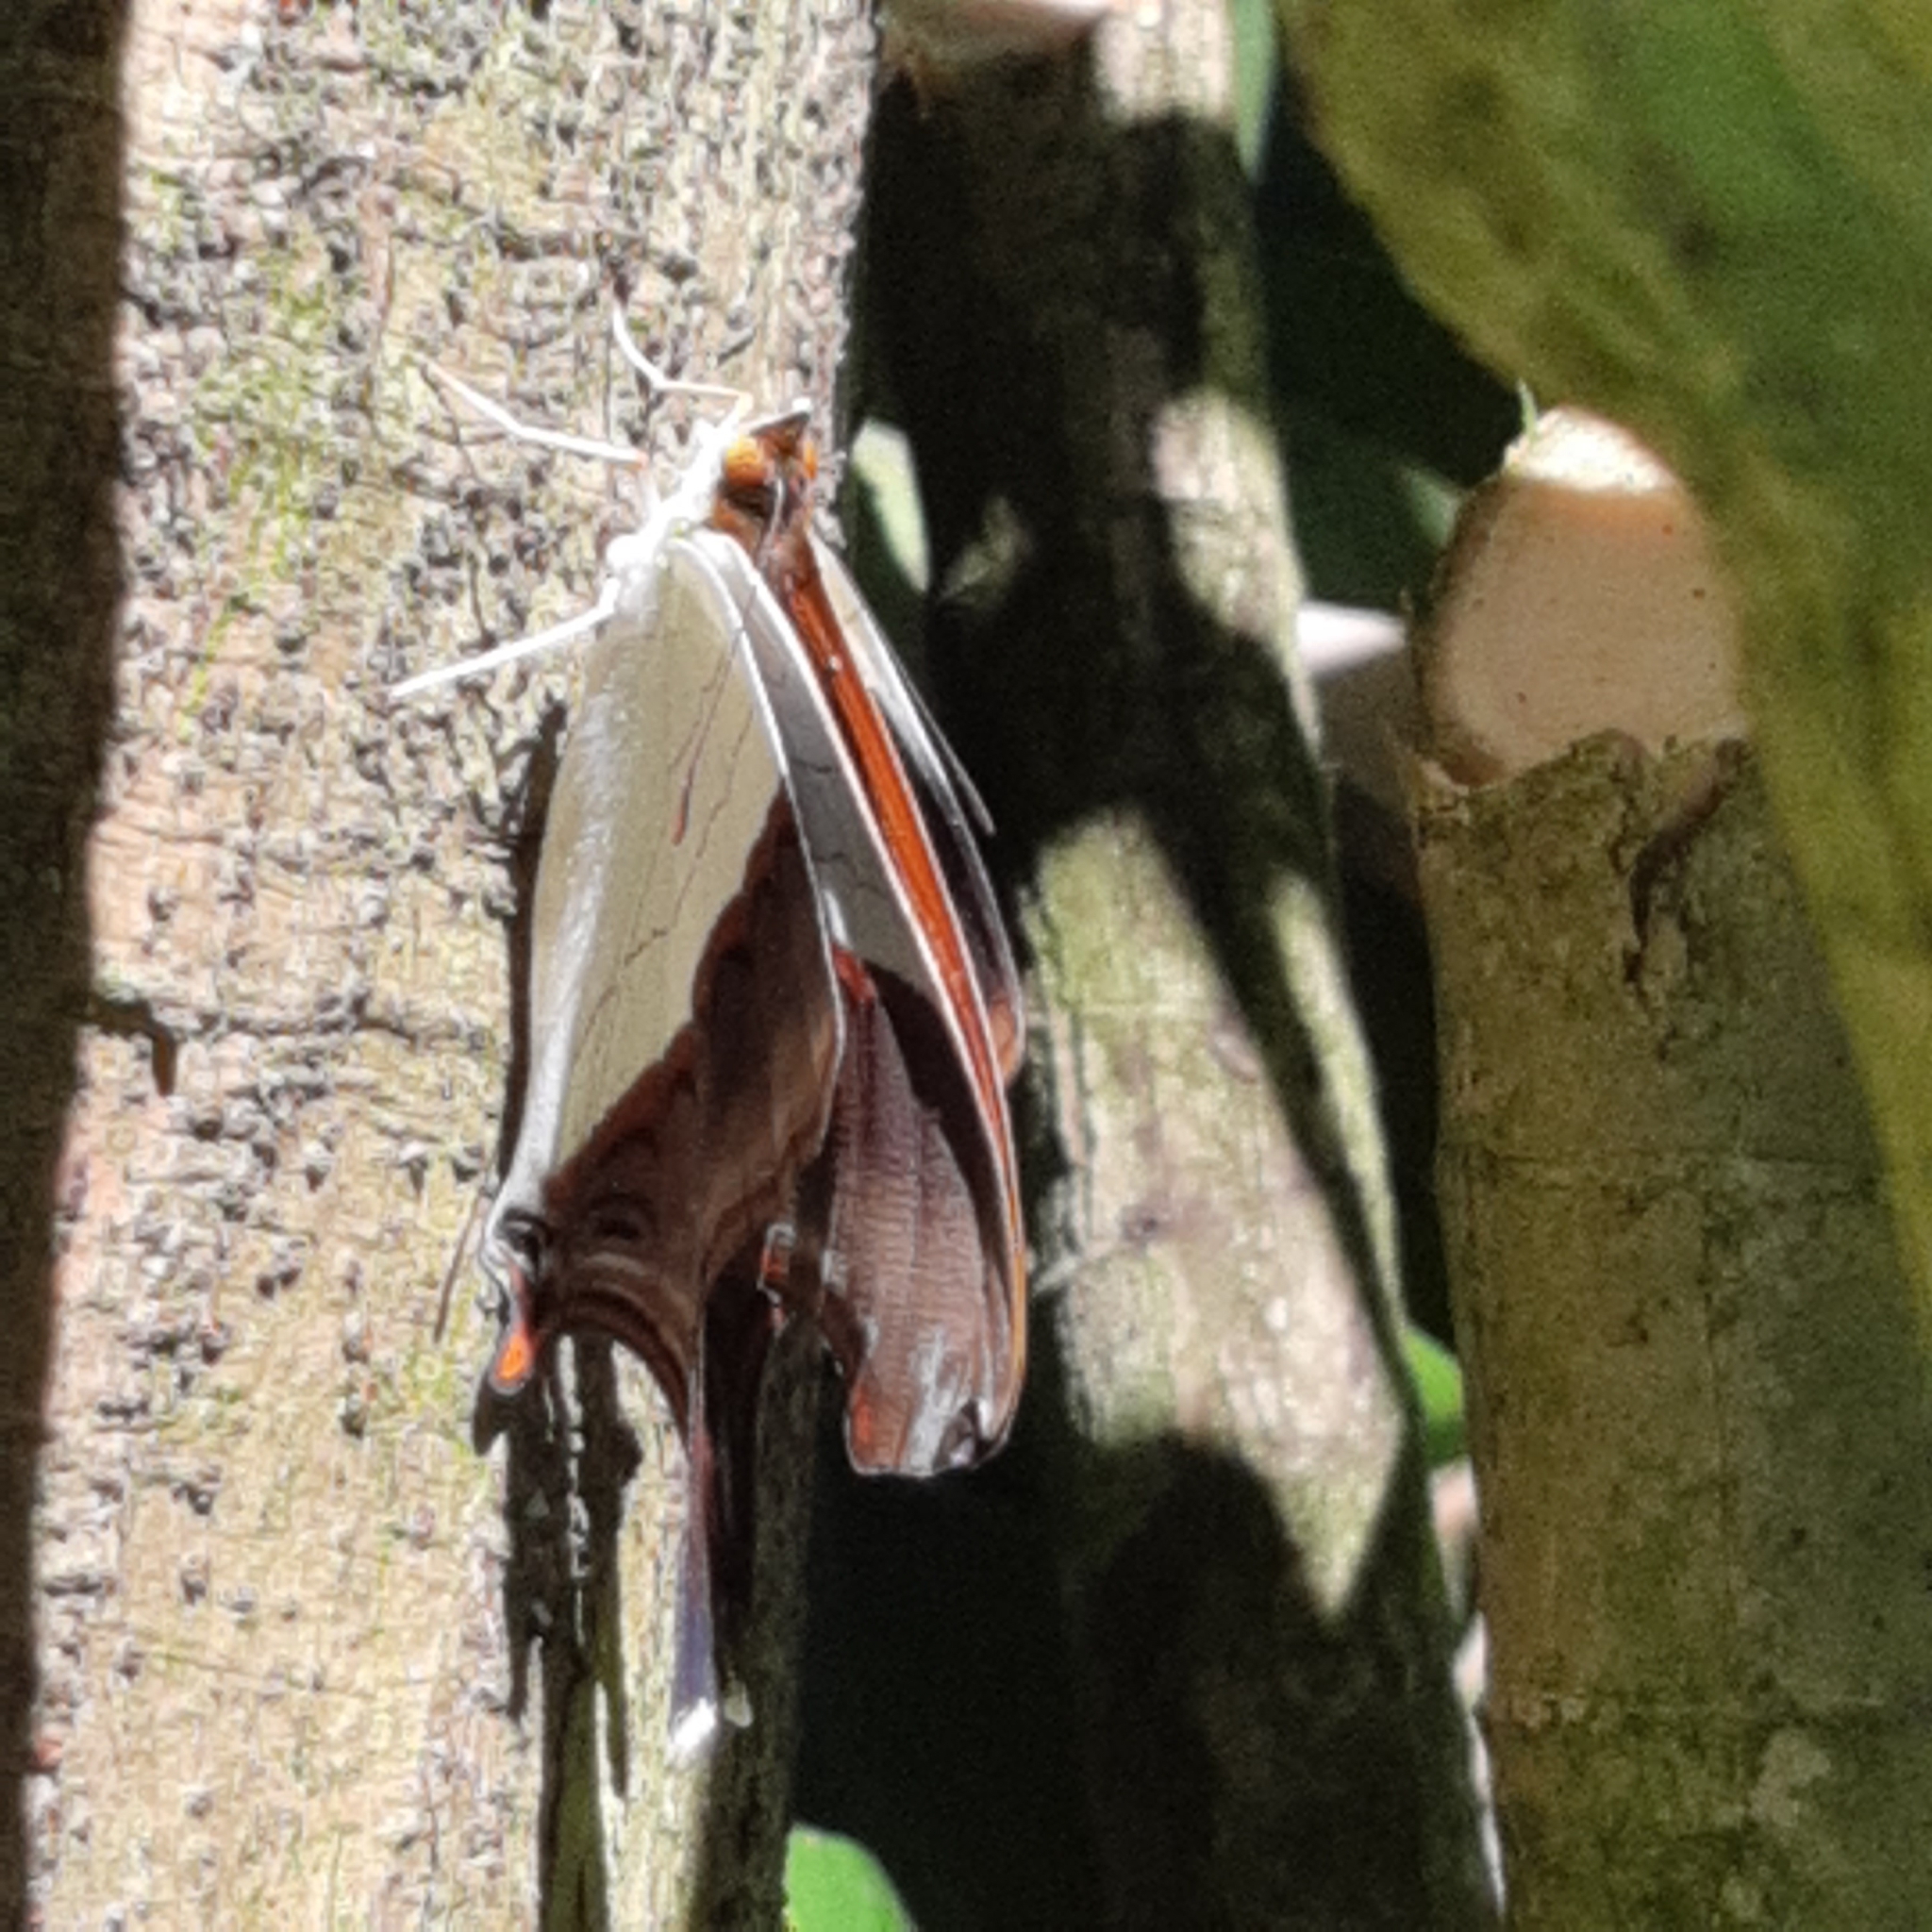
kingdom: Animalia
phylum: Arthropoda
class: Insecta
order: Lepidoptera
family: Nymphalidae
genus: Marpesia
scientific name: Marpesia zerynthia
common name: Waiter daggerwing
